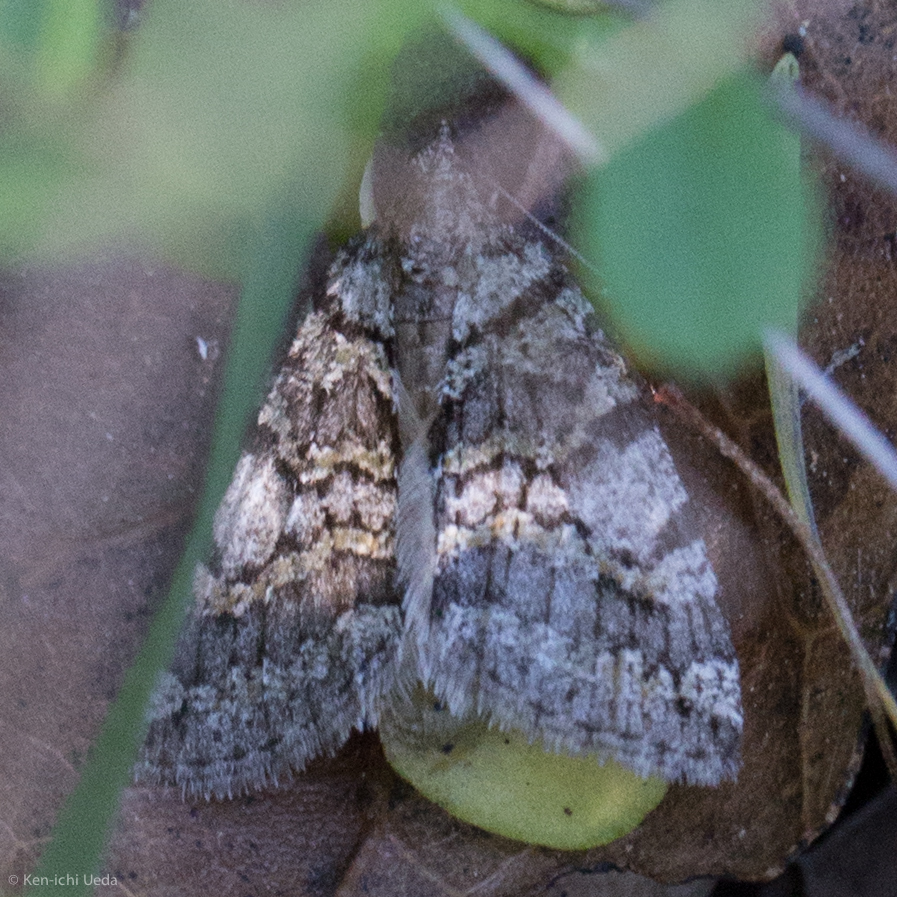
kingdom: Animalia
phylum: Arthropoda
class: Insecta
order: Lepidoptera
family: Geometridae
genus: Hydriomena
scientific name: Hydriomena nubilofasciata
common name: Oak winter highflier moth
